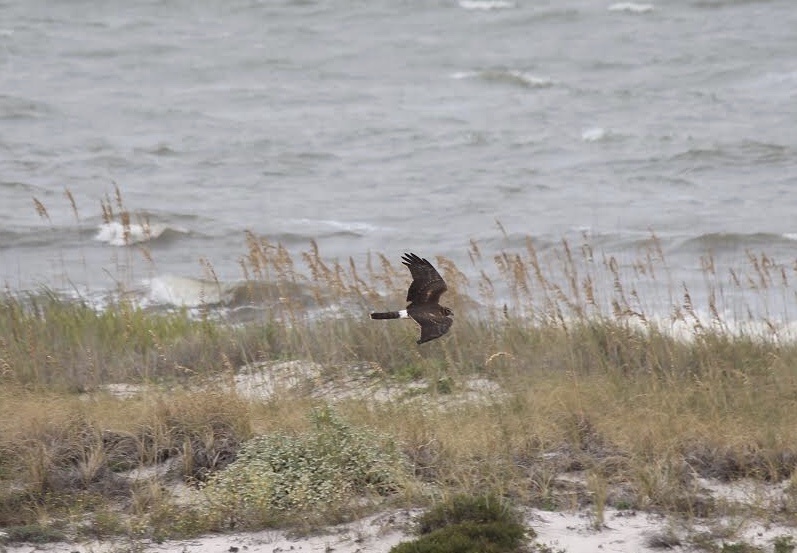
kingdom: Animalia
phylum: Chordata
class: Aves
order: Accipitriformes
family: Accipitridae
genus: Circus
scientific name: Circus cyaneus
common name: Hen harrier
